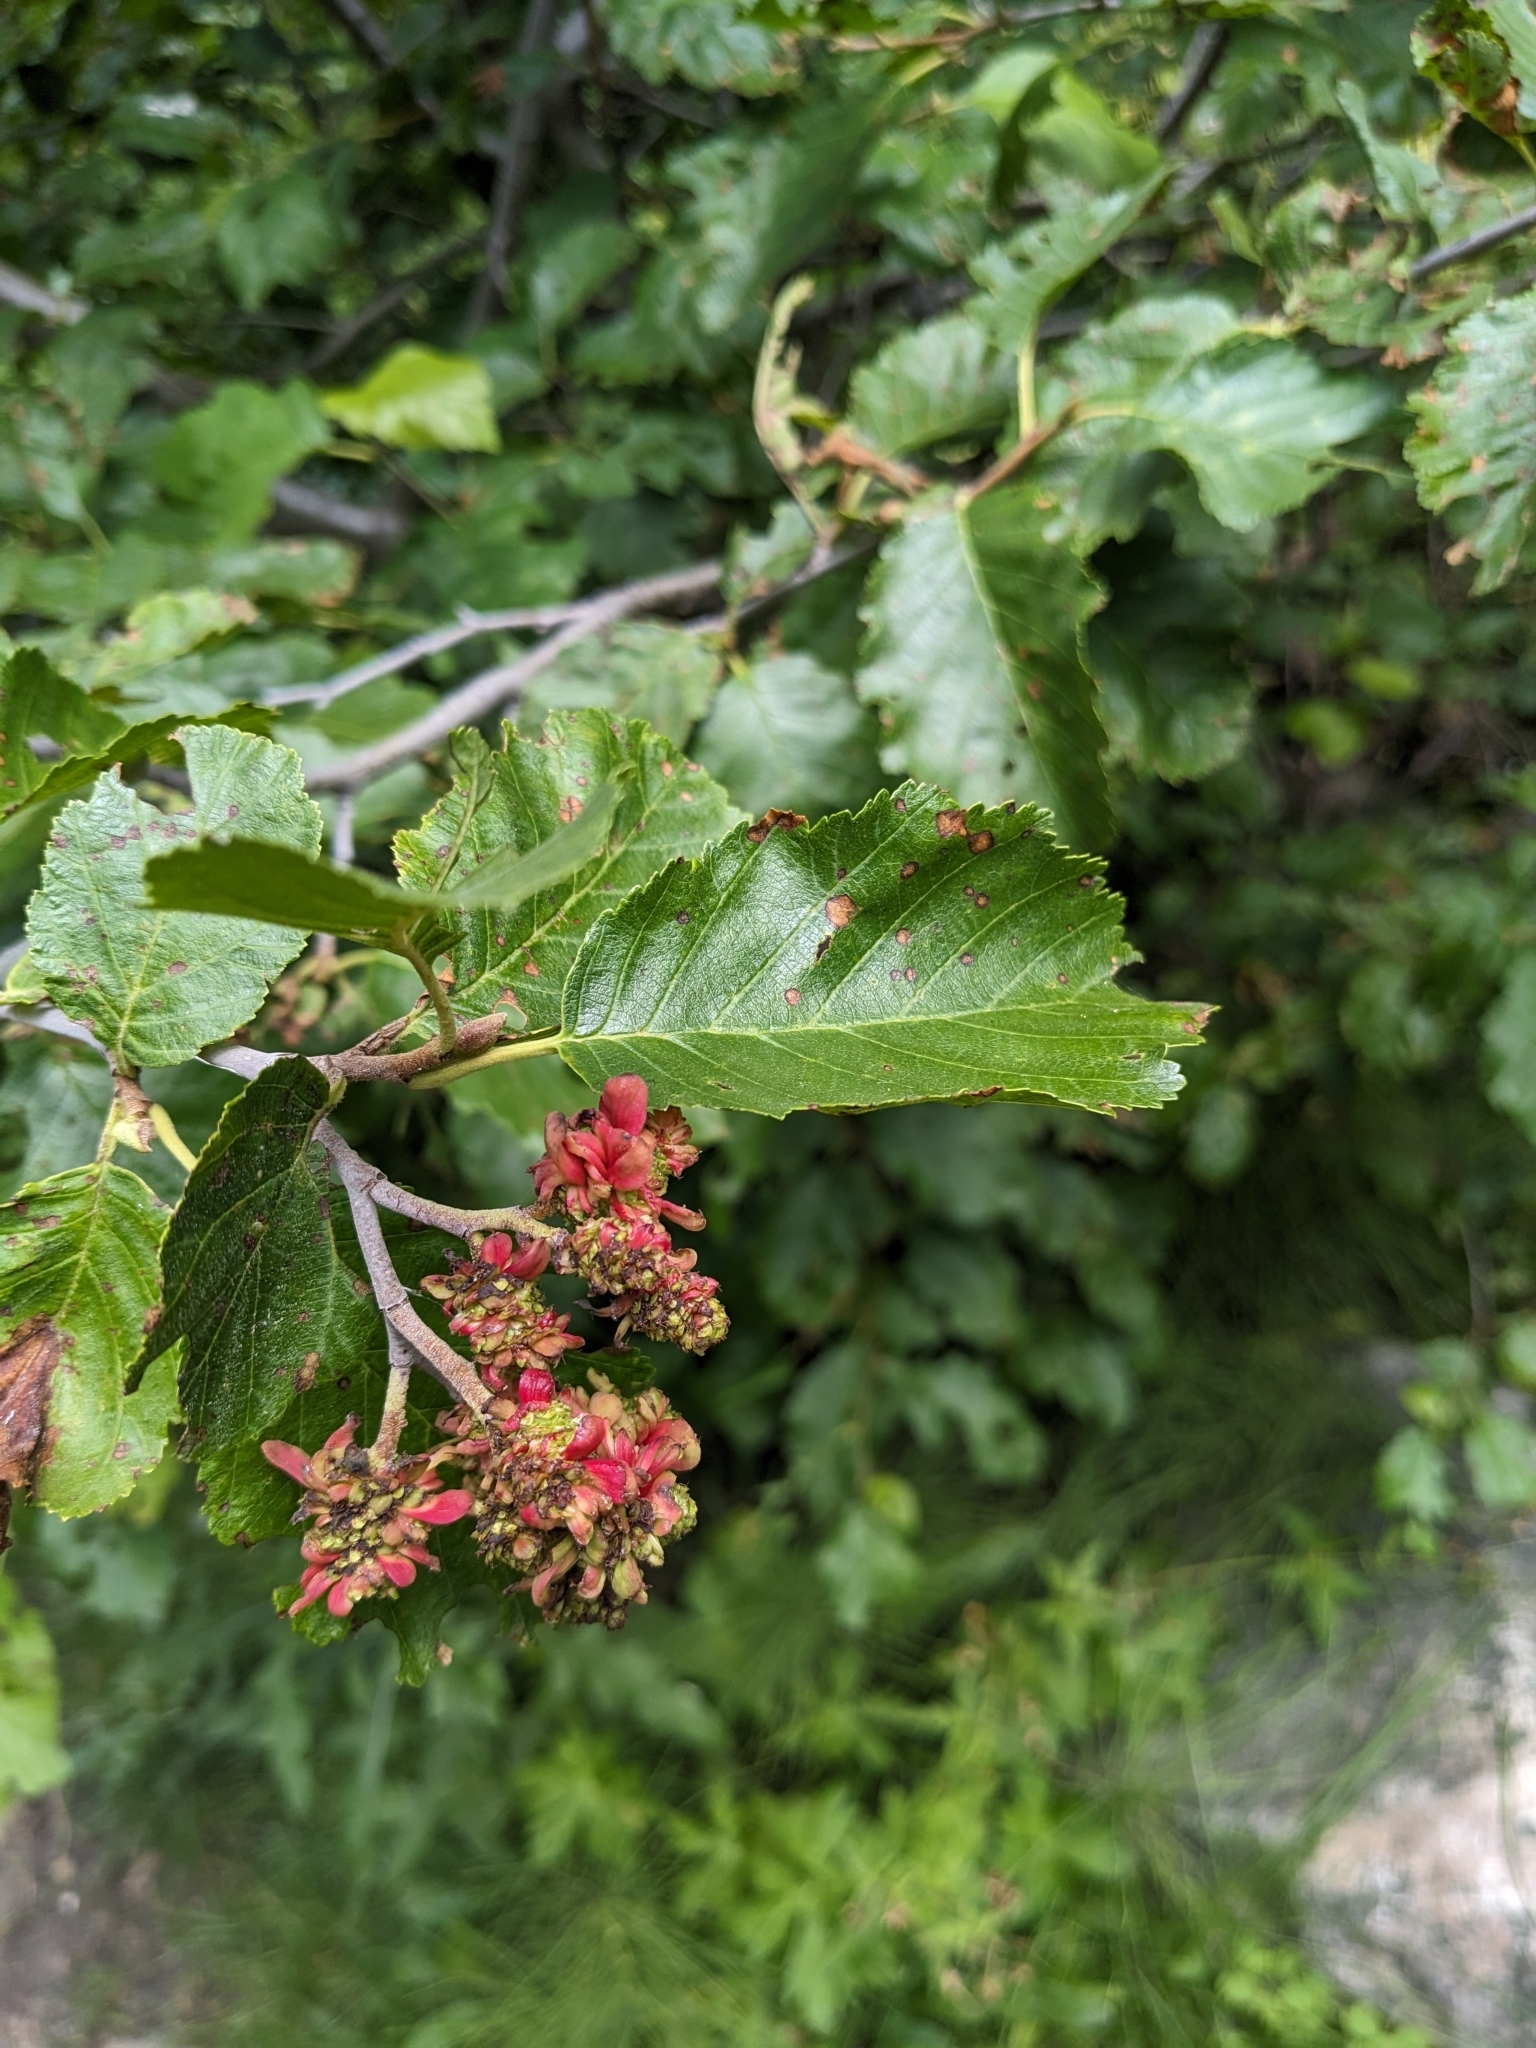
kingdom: Fungi
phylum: Ascomycota
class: Taphrinomycetes
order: Taphrinales
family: Taphrinaceae
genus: Taphrina
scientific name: Taphrina occidentalis
